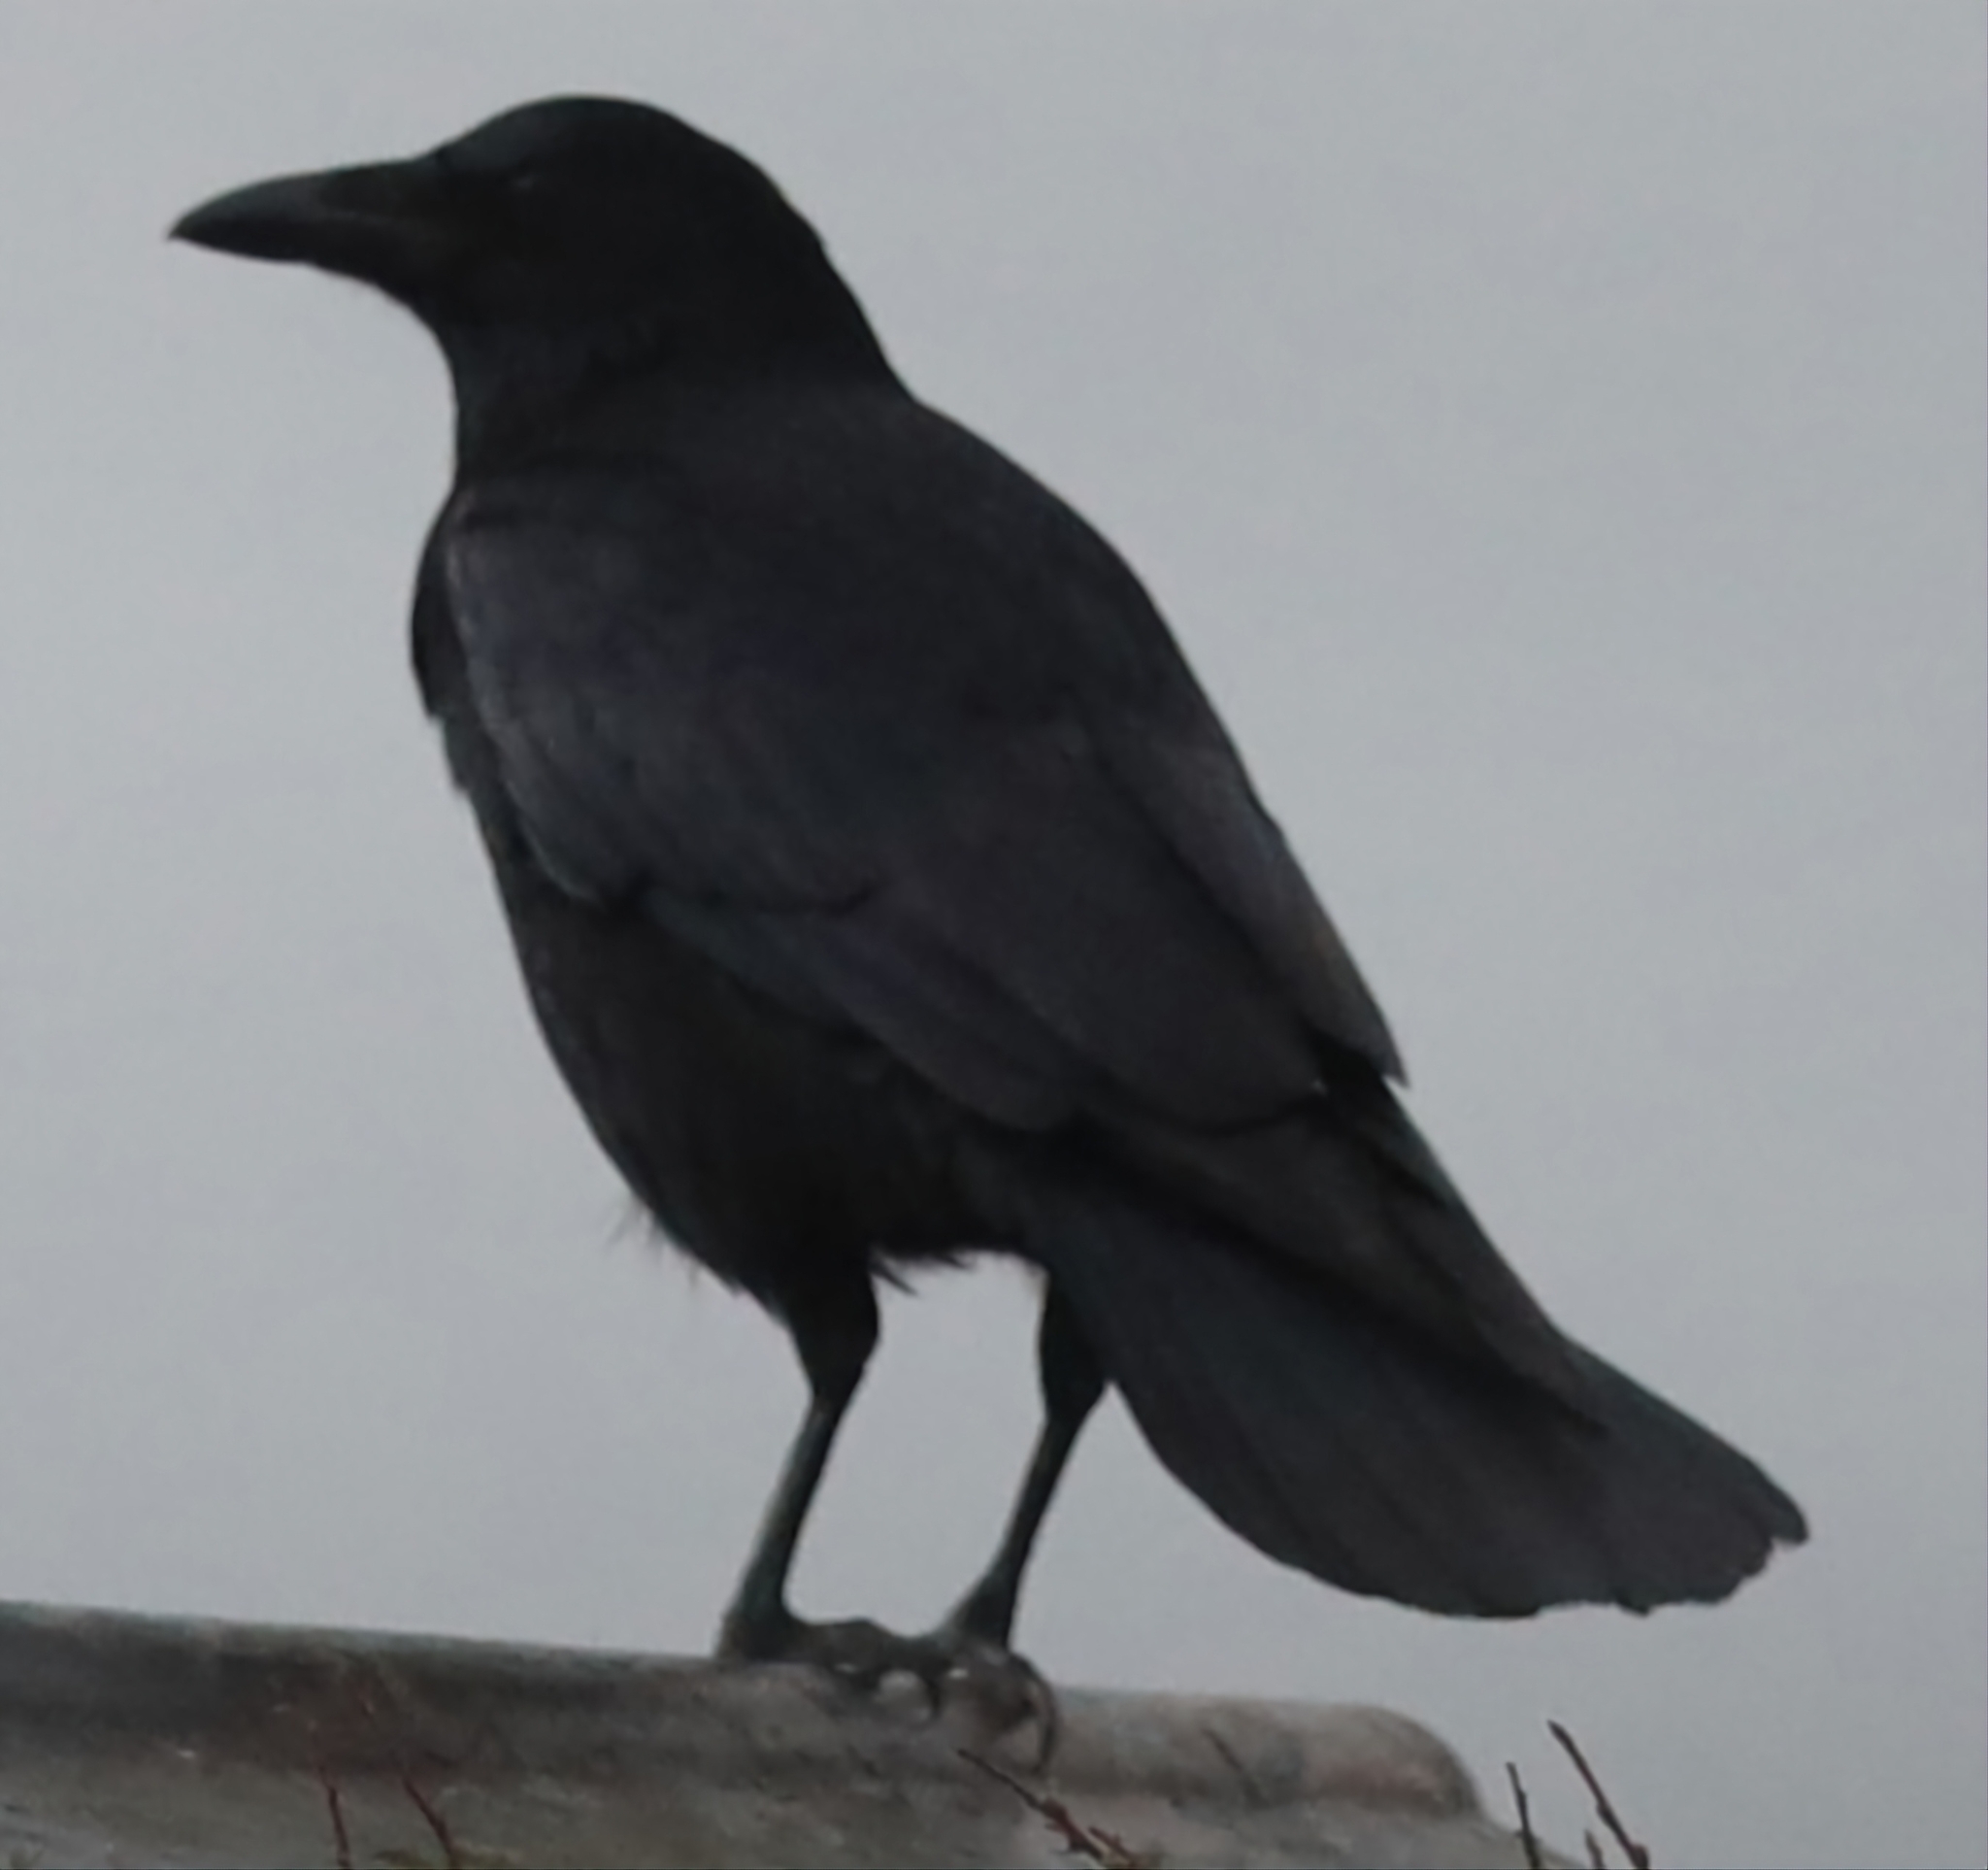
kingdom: Animalia
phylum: Chordata
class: Aves
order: Passeriformes
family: Corvidae
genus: Corvus
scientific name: Corvus corone
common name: Carrion crow
